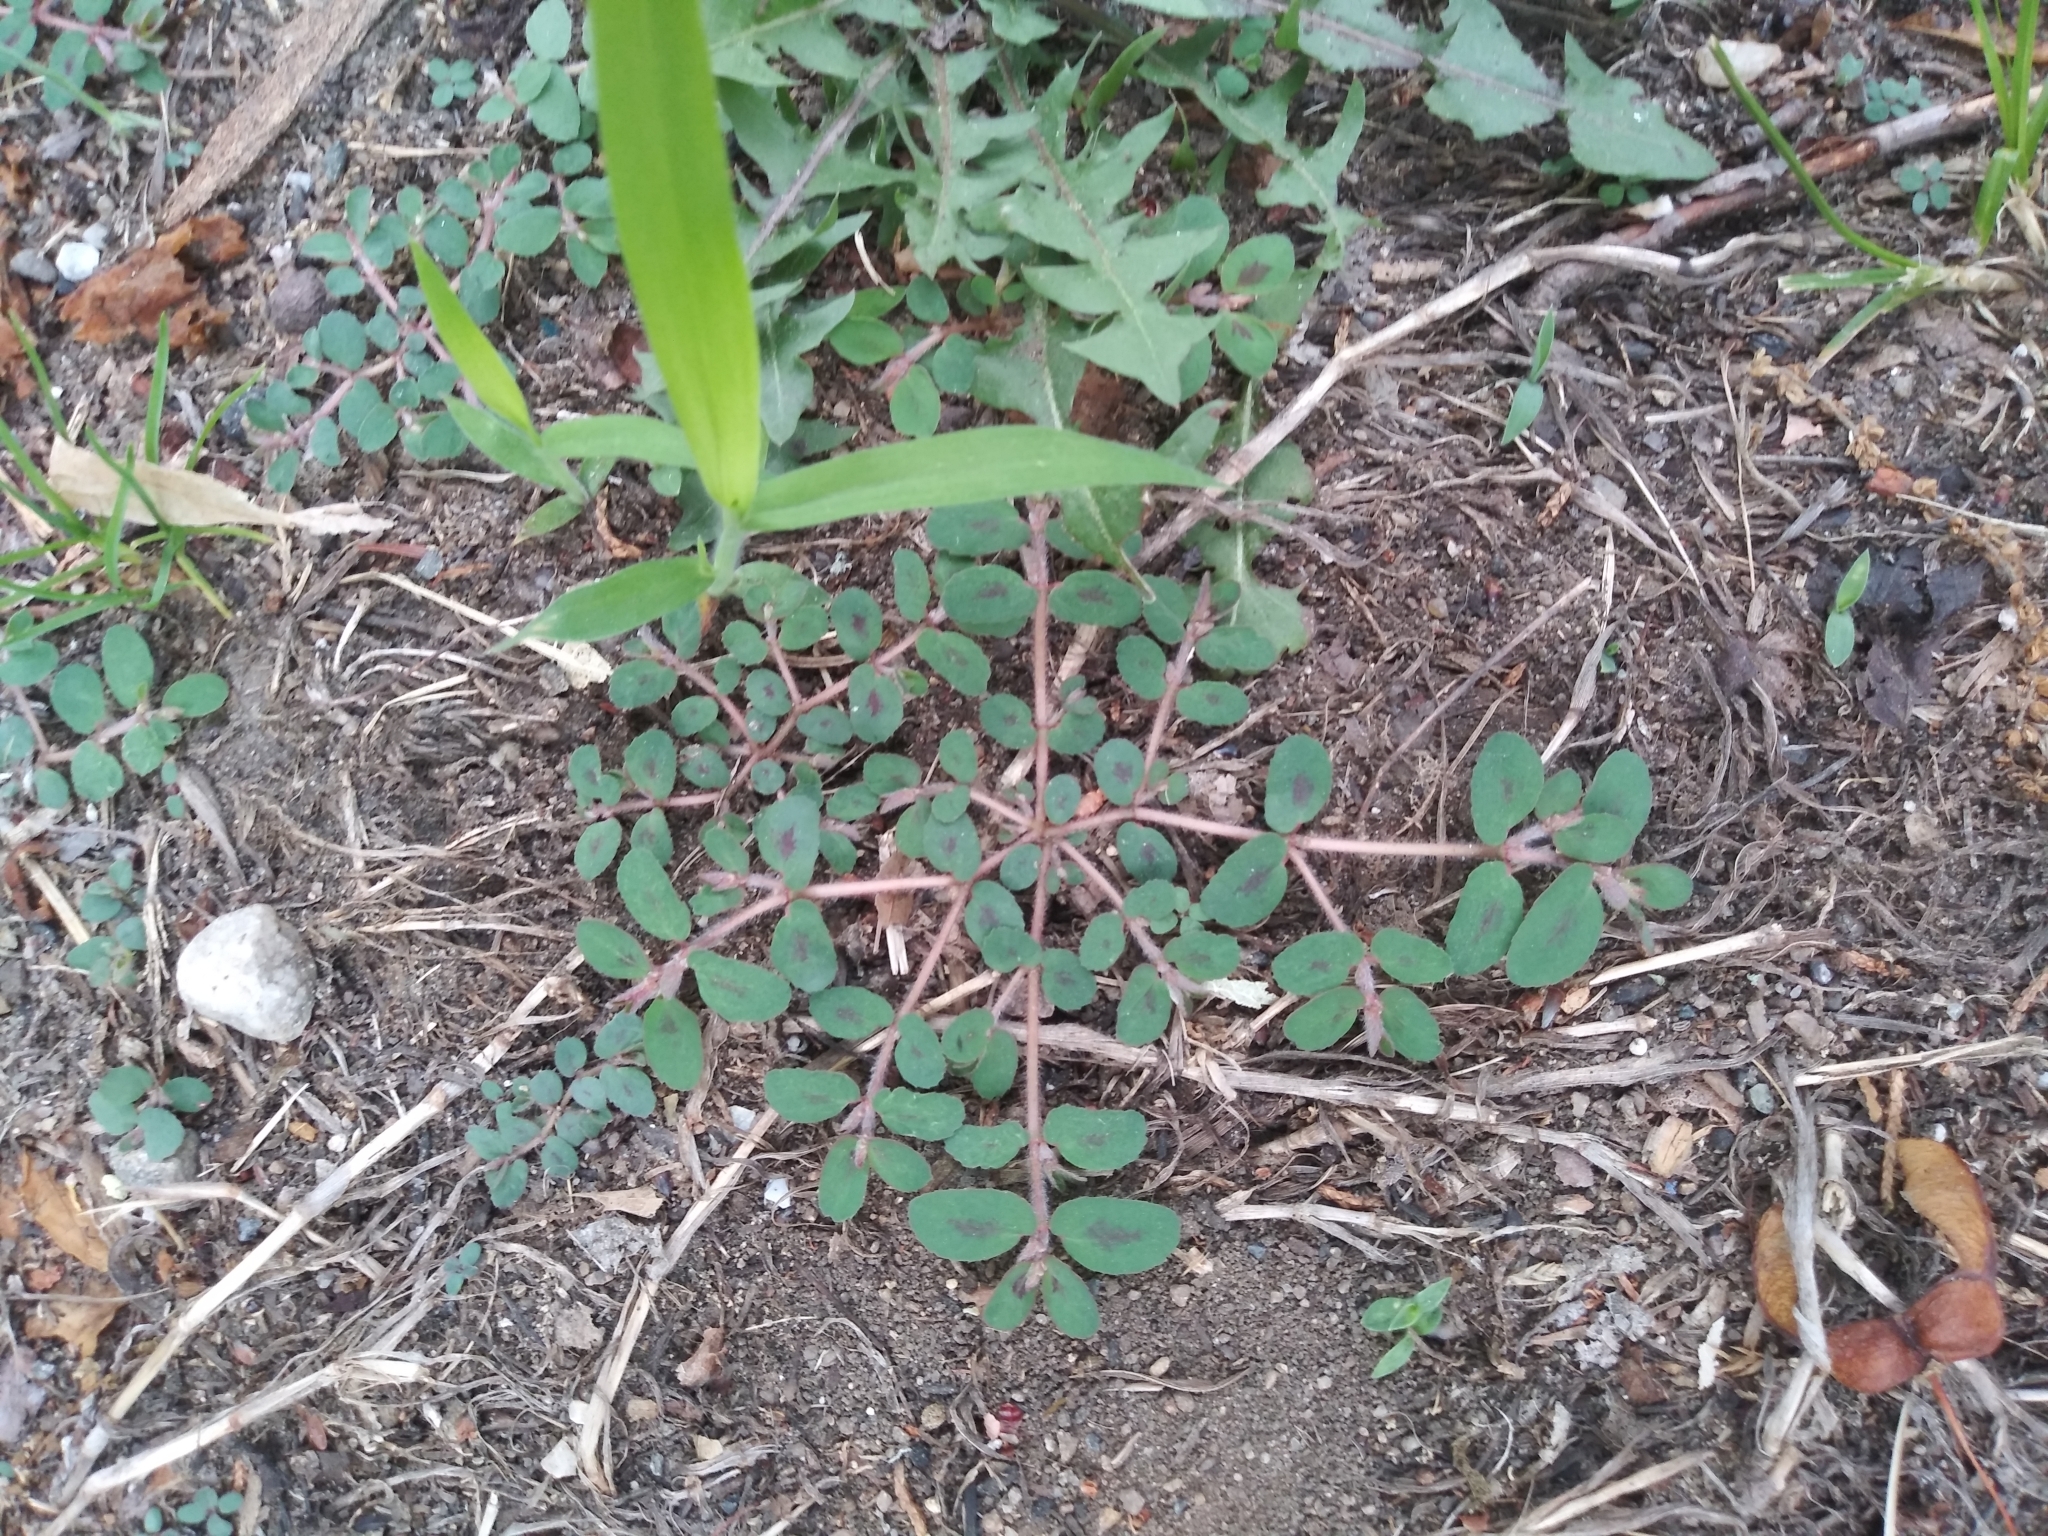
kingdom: Plantae
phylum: Tracheophyta
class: Magnoliopsida
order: Malpighiales
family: Euphorbiaceae
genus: Euphorbia
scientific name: Euphorbia maculata
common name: Spotted spurge
